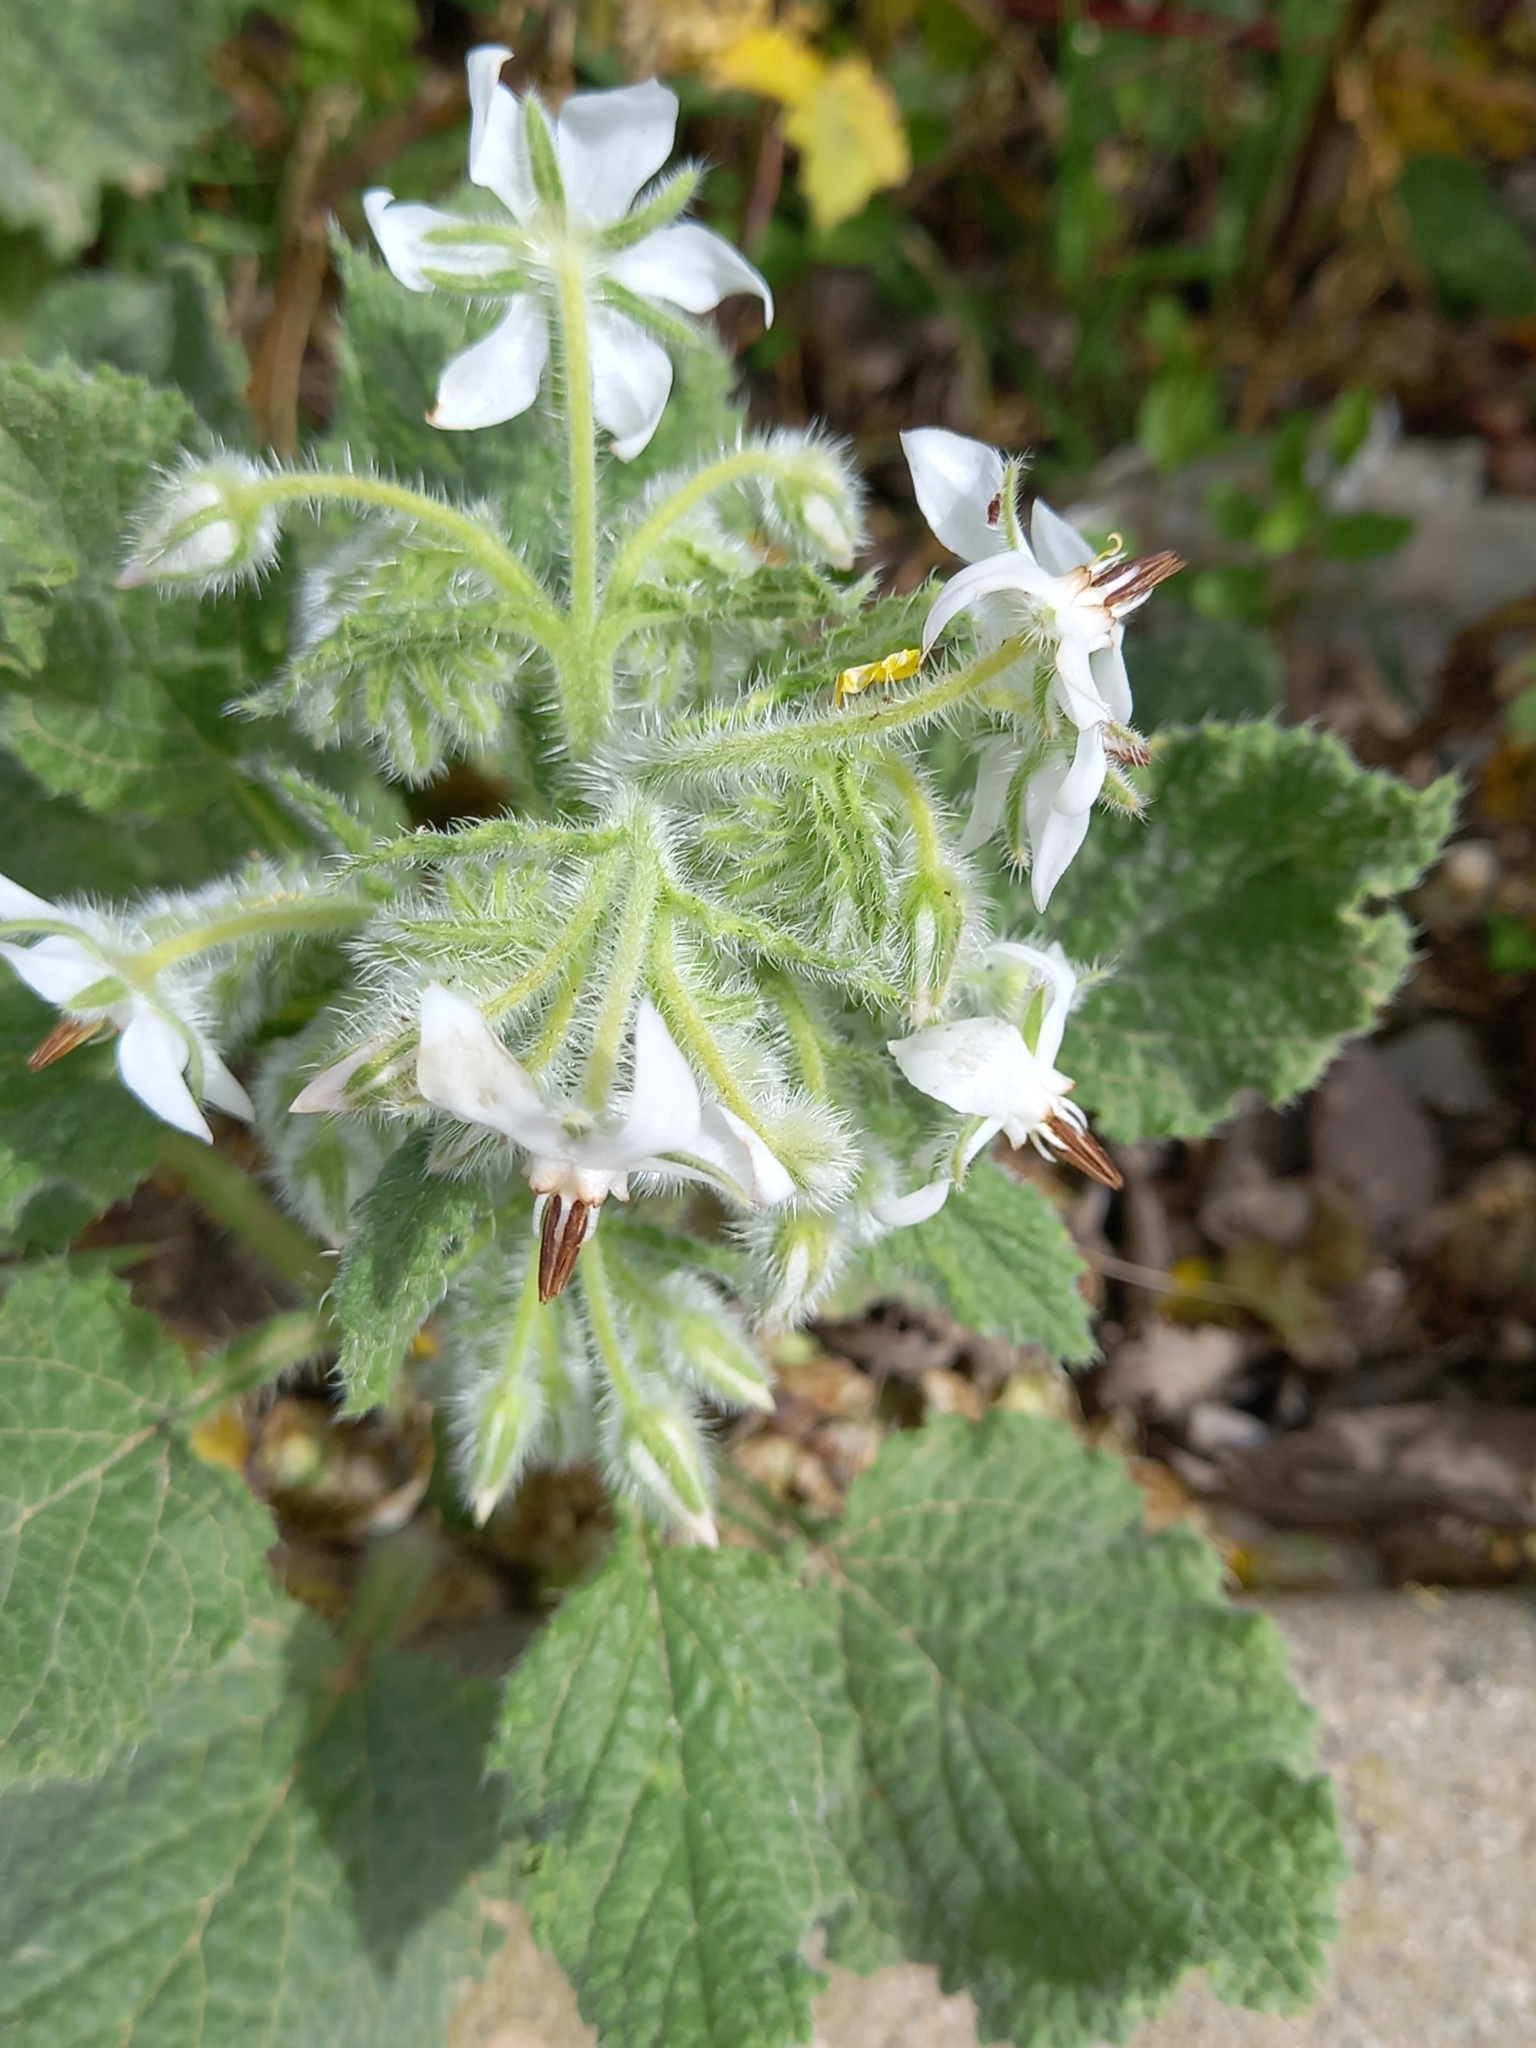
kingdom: Plantae
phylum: Tracheophyta
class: Magnoliopsida
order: Boraginales
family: Boraginaceae
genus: Borago
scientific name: Borago officinalis
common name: Borage
